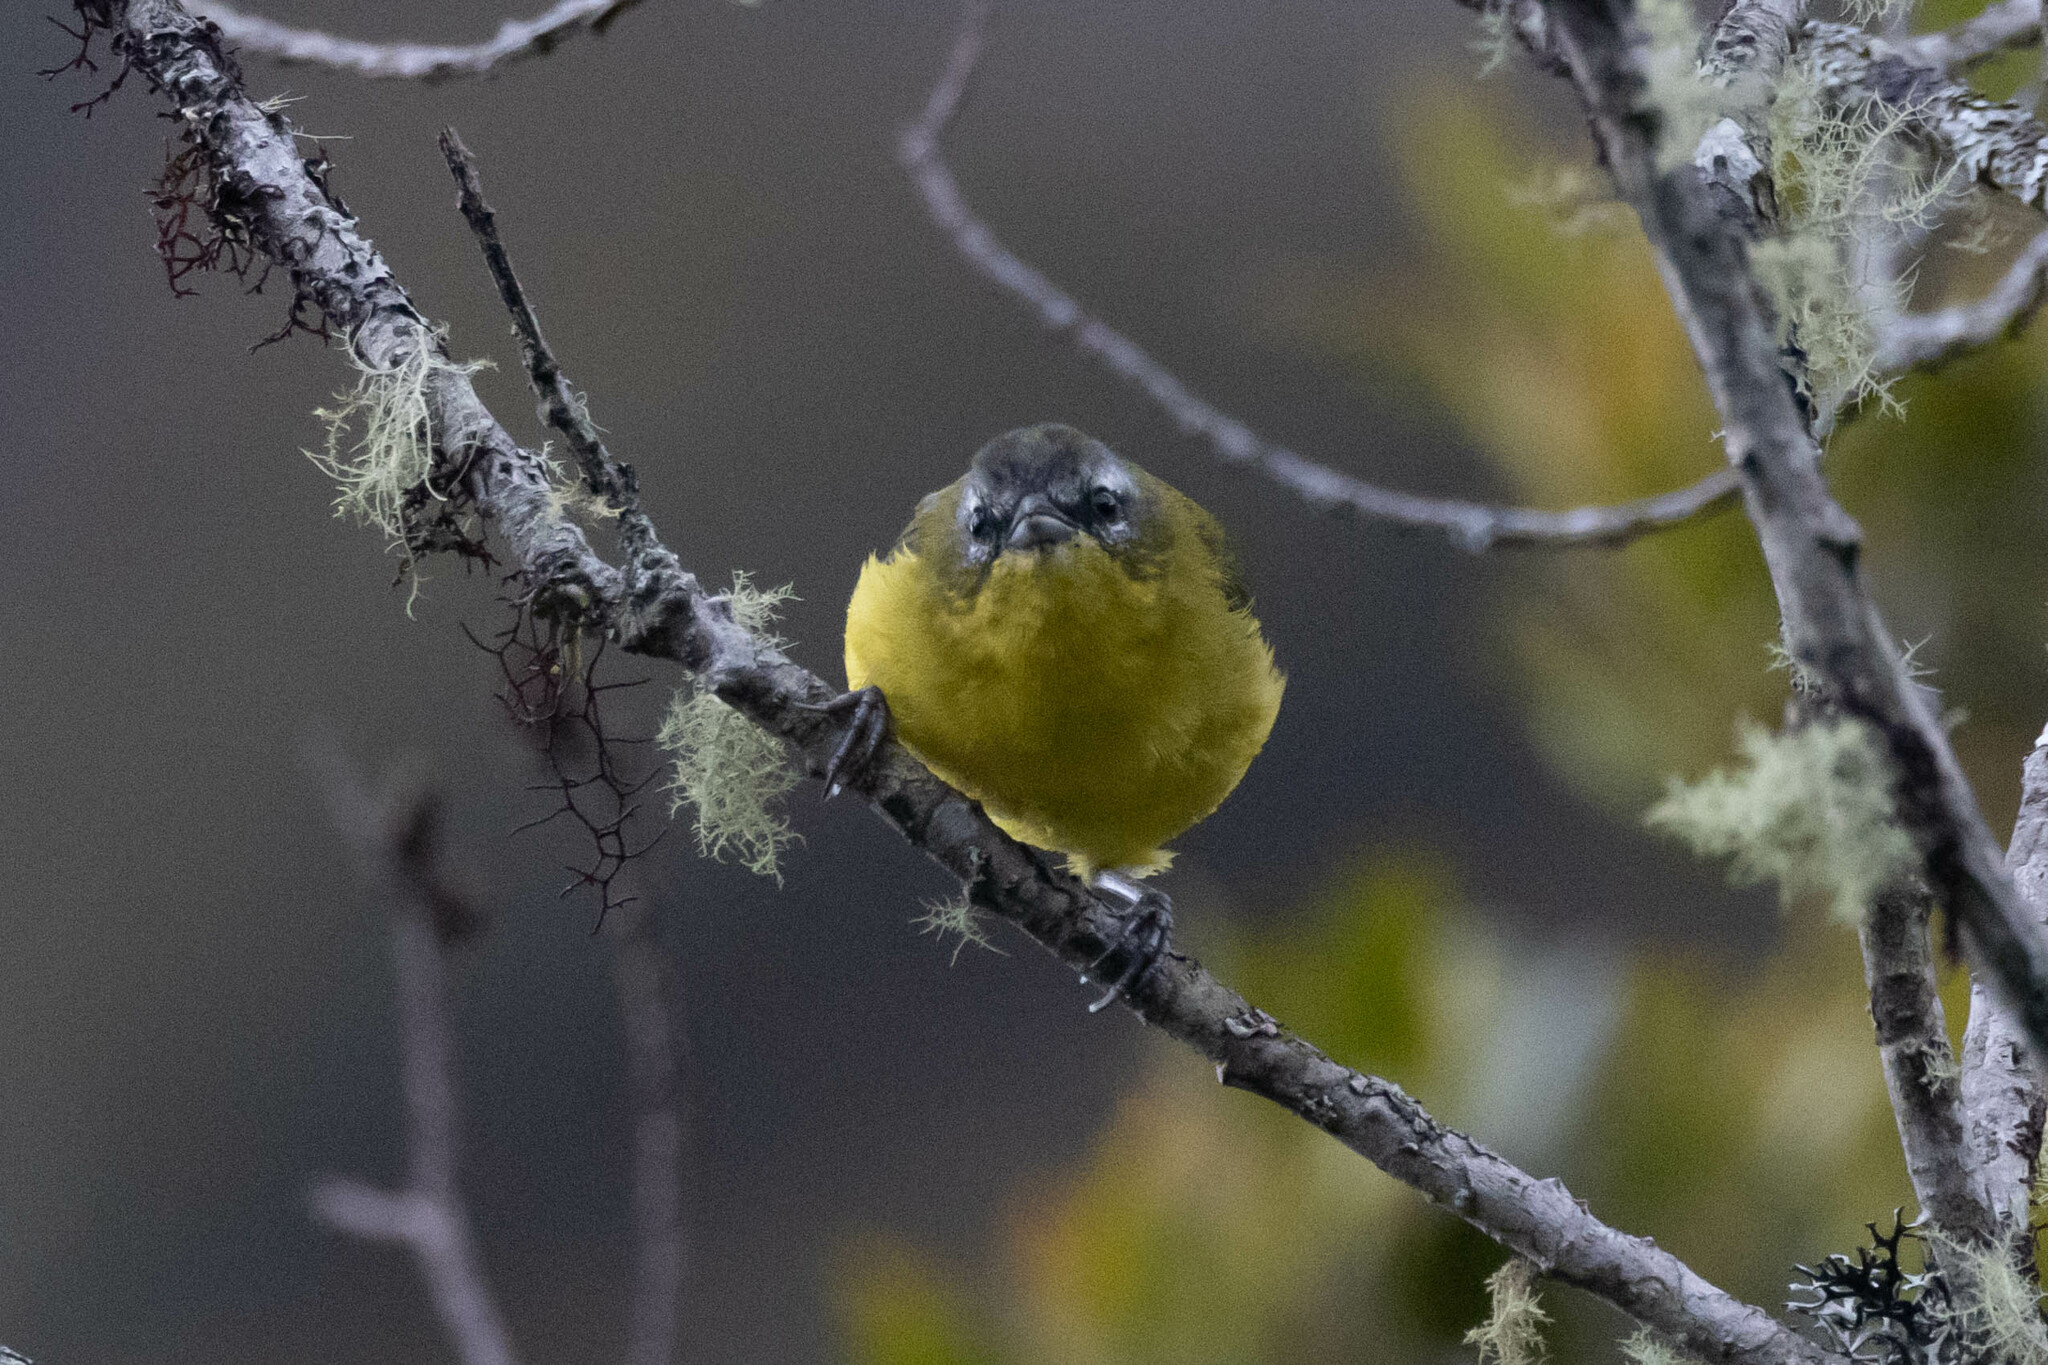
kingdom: Animalia
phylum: Chordata
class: Aves
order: Passeriformes
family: Thraupidae
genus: Thlypopsis
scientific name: Thlypopsis superciliaris
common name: Superciliaried hemispingus
